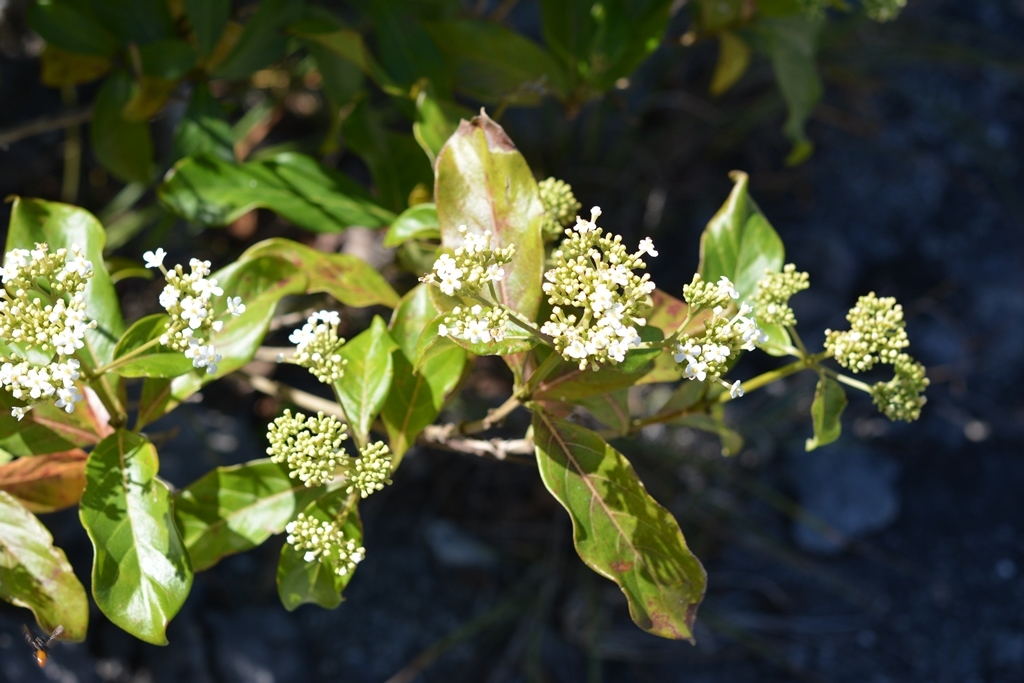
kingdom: Plantae
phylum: Tracheophyta
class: Magnoliopsida
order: Gentianales
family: Rubiaceae
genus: Rogiera
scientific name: Rogiera stenosiphon
